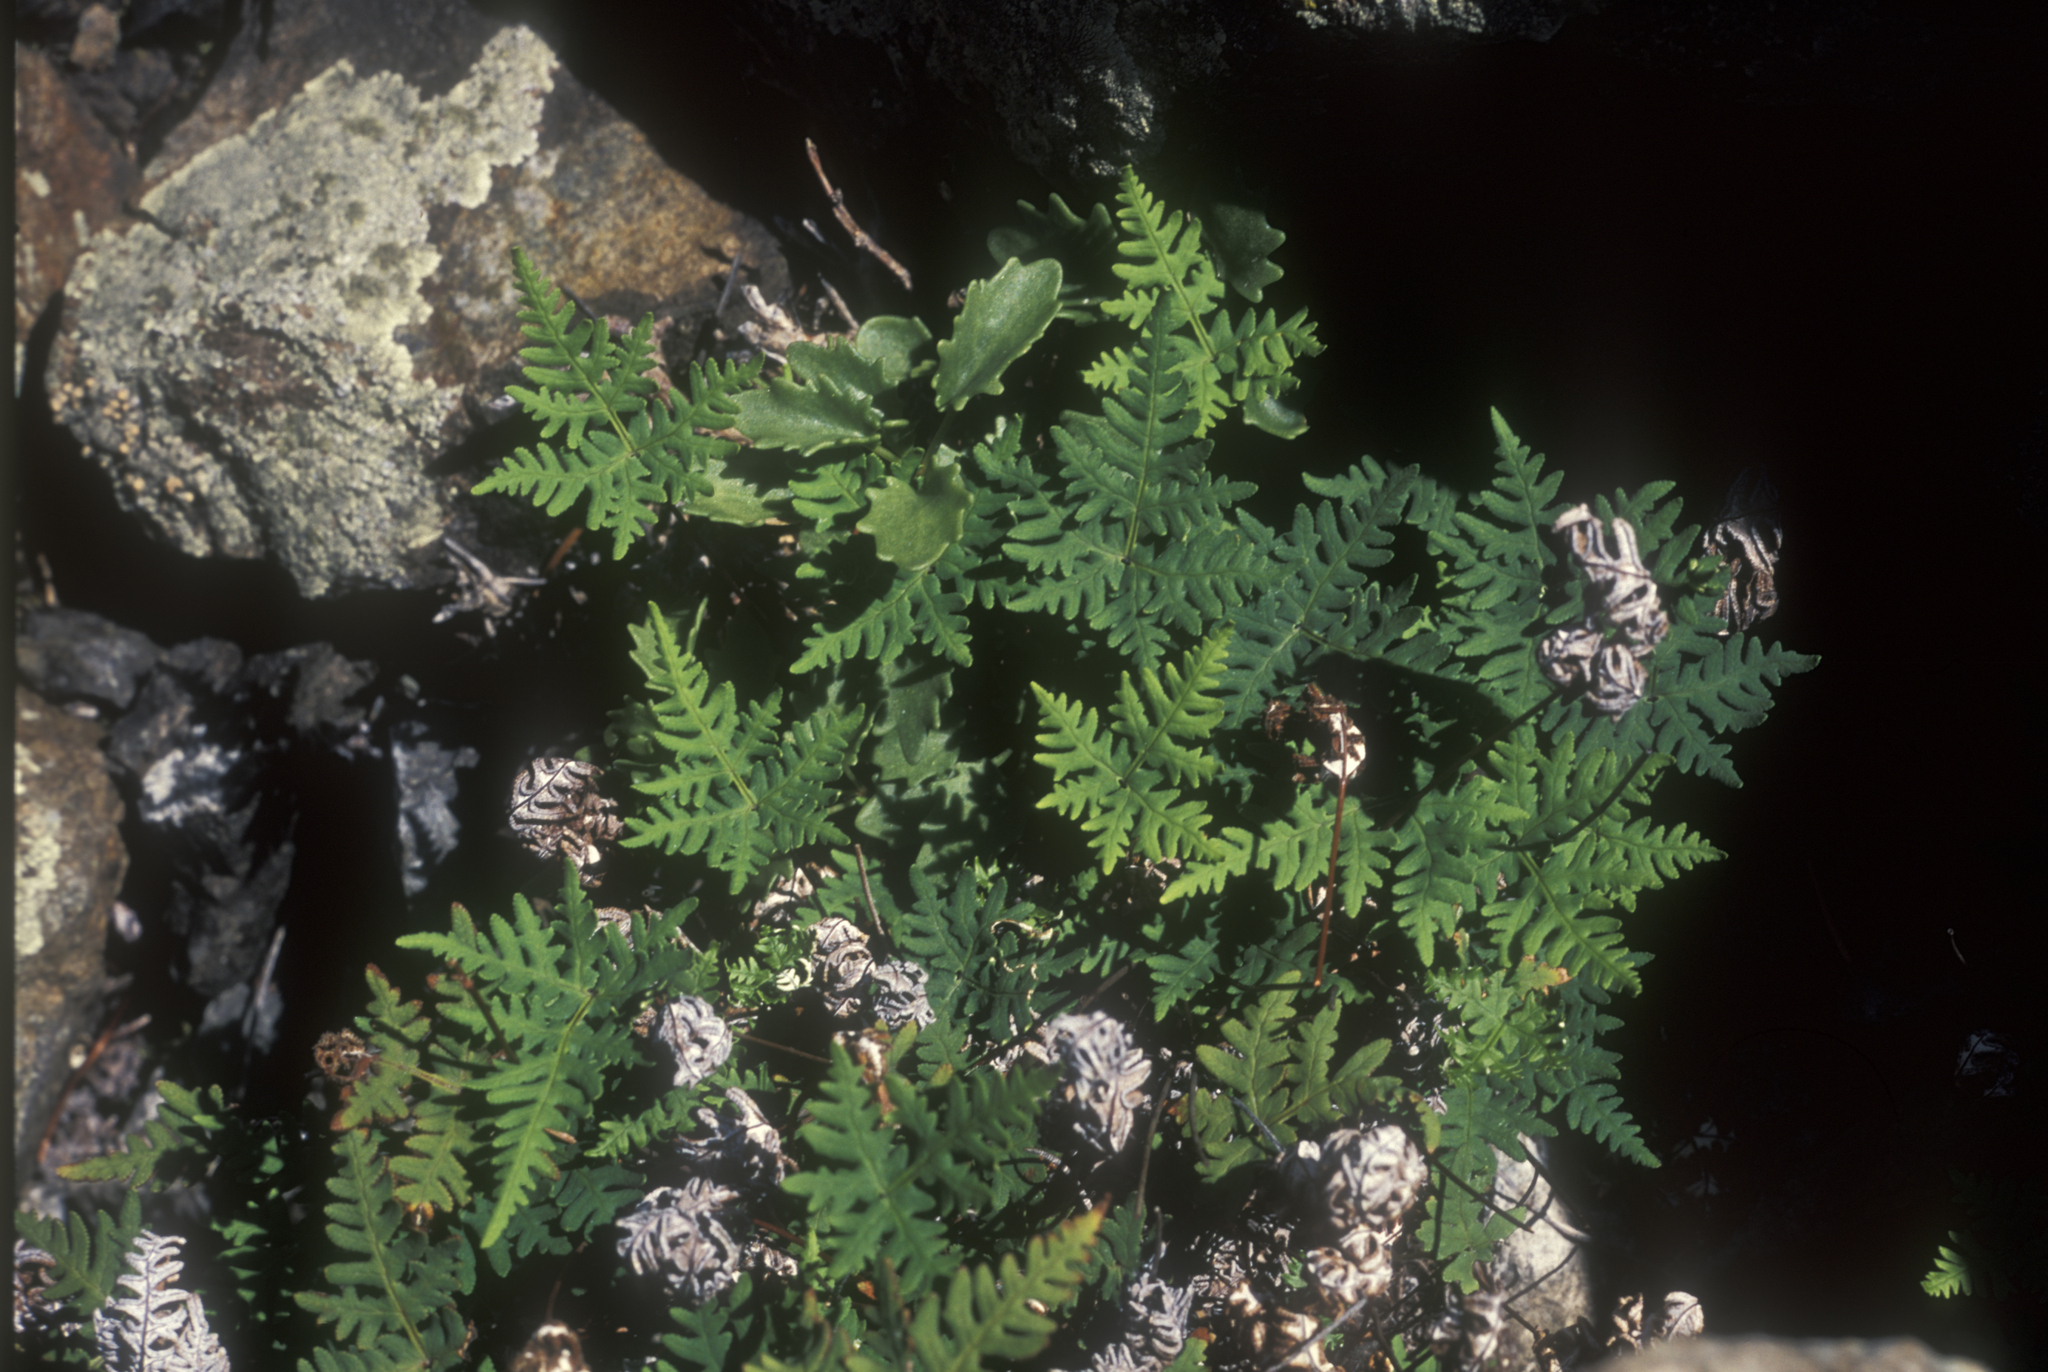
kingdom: Plantae
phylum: Tracheophyta
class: Polypodiopsida
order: Polypodiales
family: Pteridaceae
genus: Aleuritopteris
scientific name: Aleuritopteris argentea
